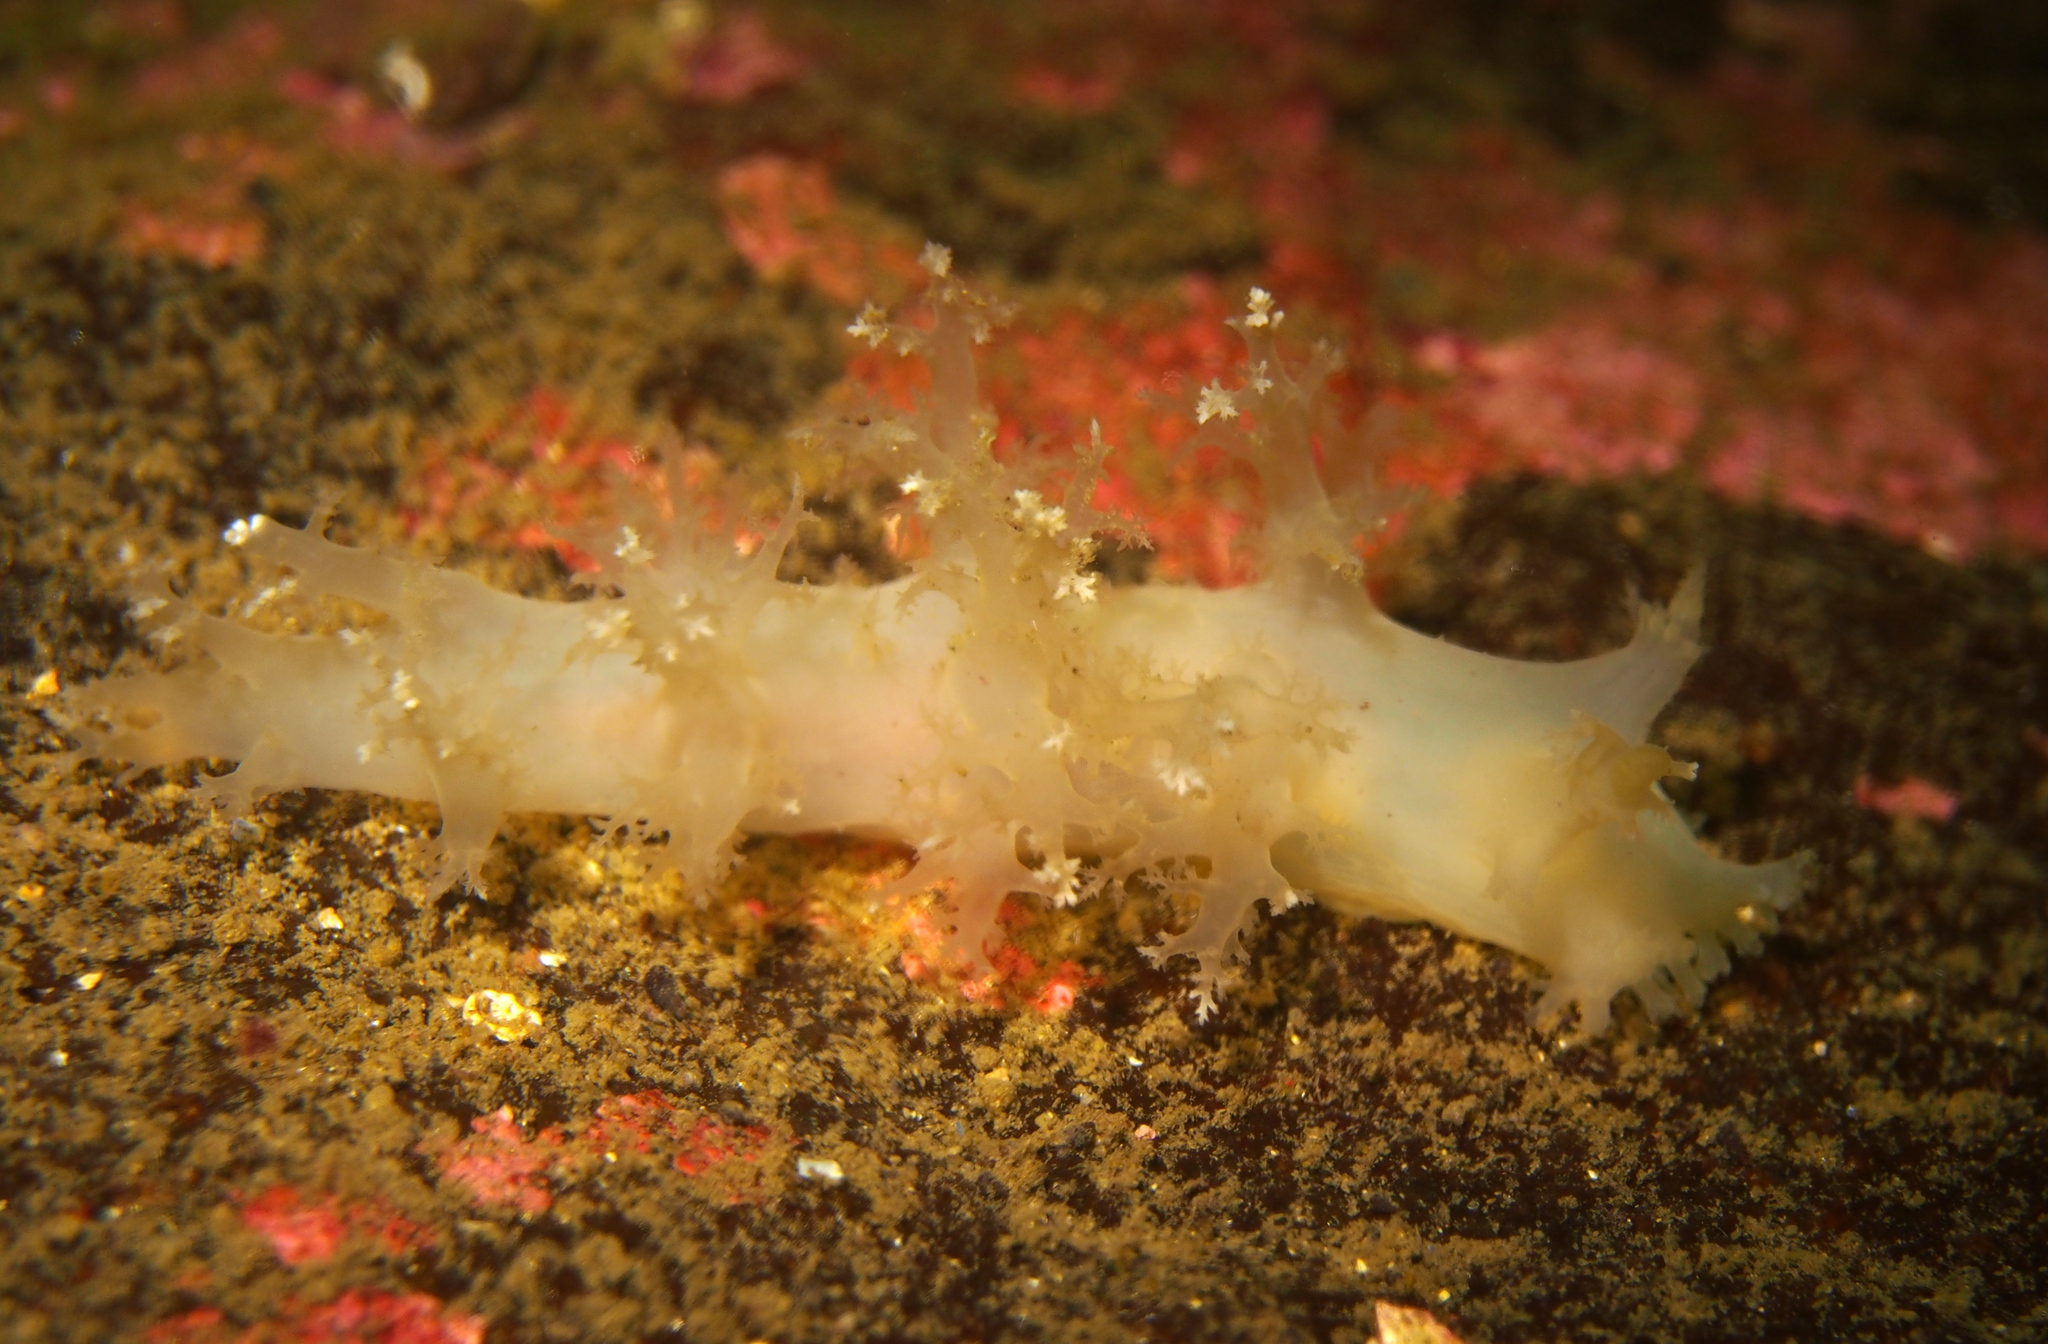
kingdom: Animalia
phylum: Mollusca
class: Gastropoda
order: Nudibranchia
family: Dendronotidae
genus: Dendronotus
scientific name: Dendronotus lacteus
